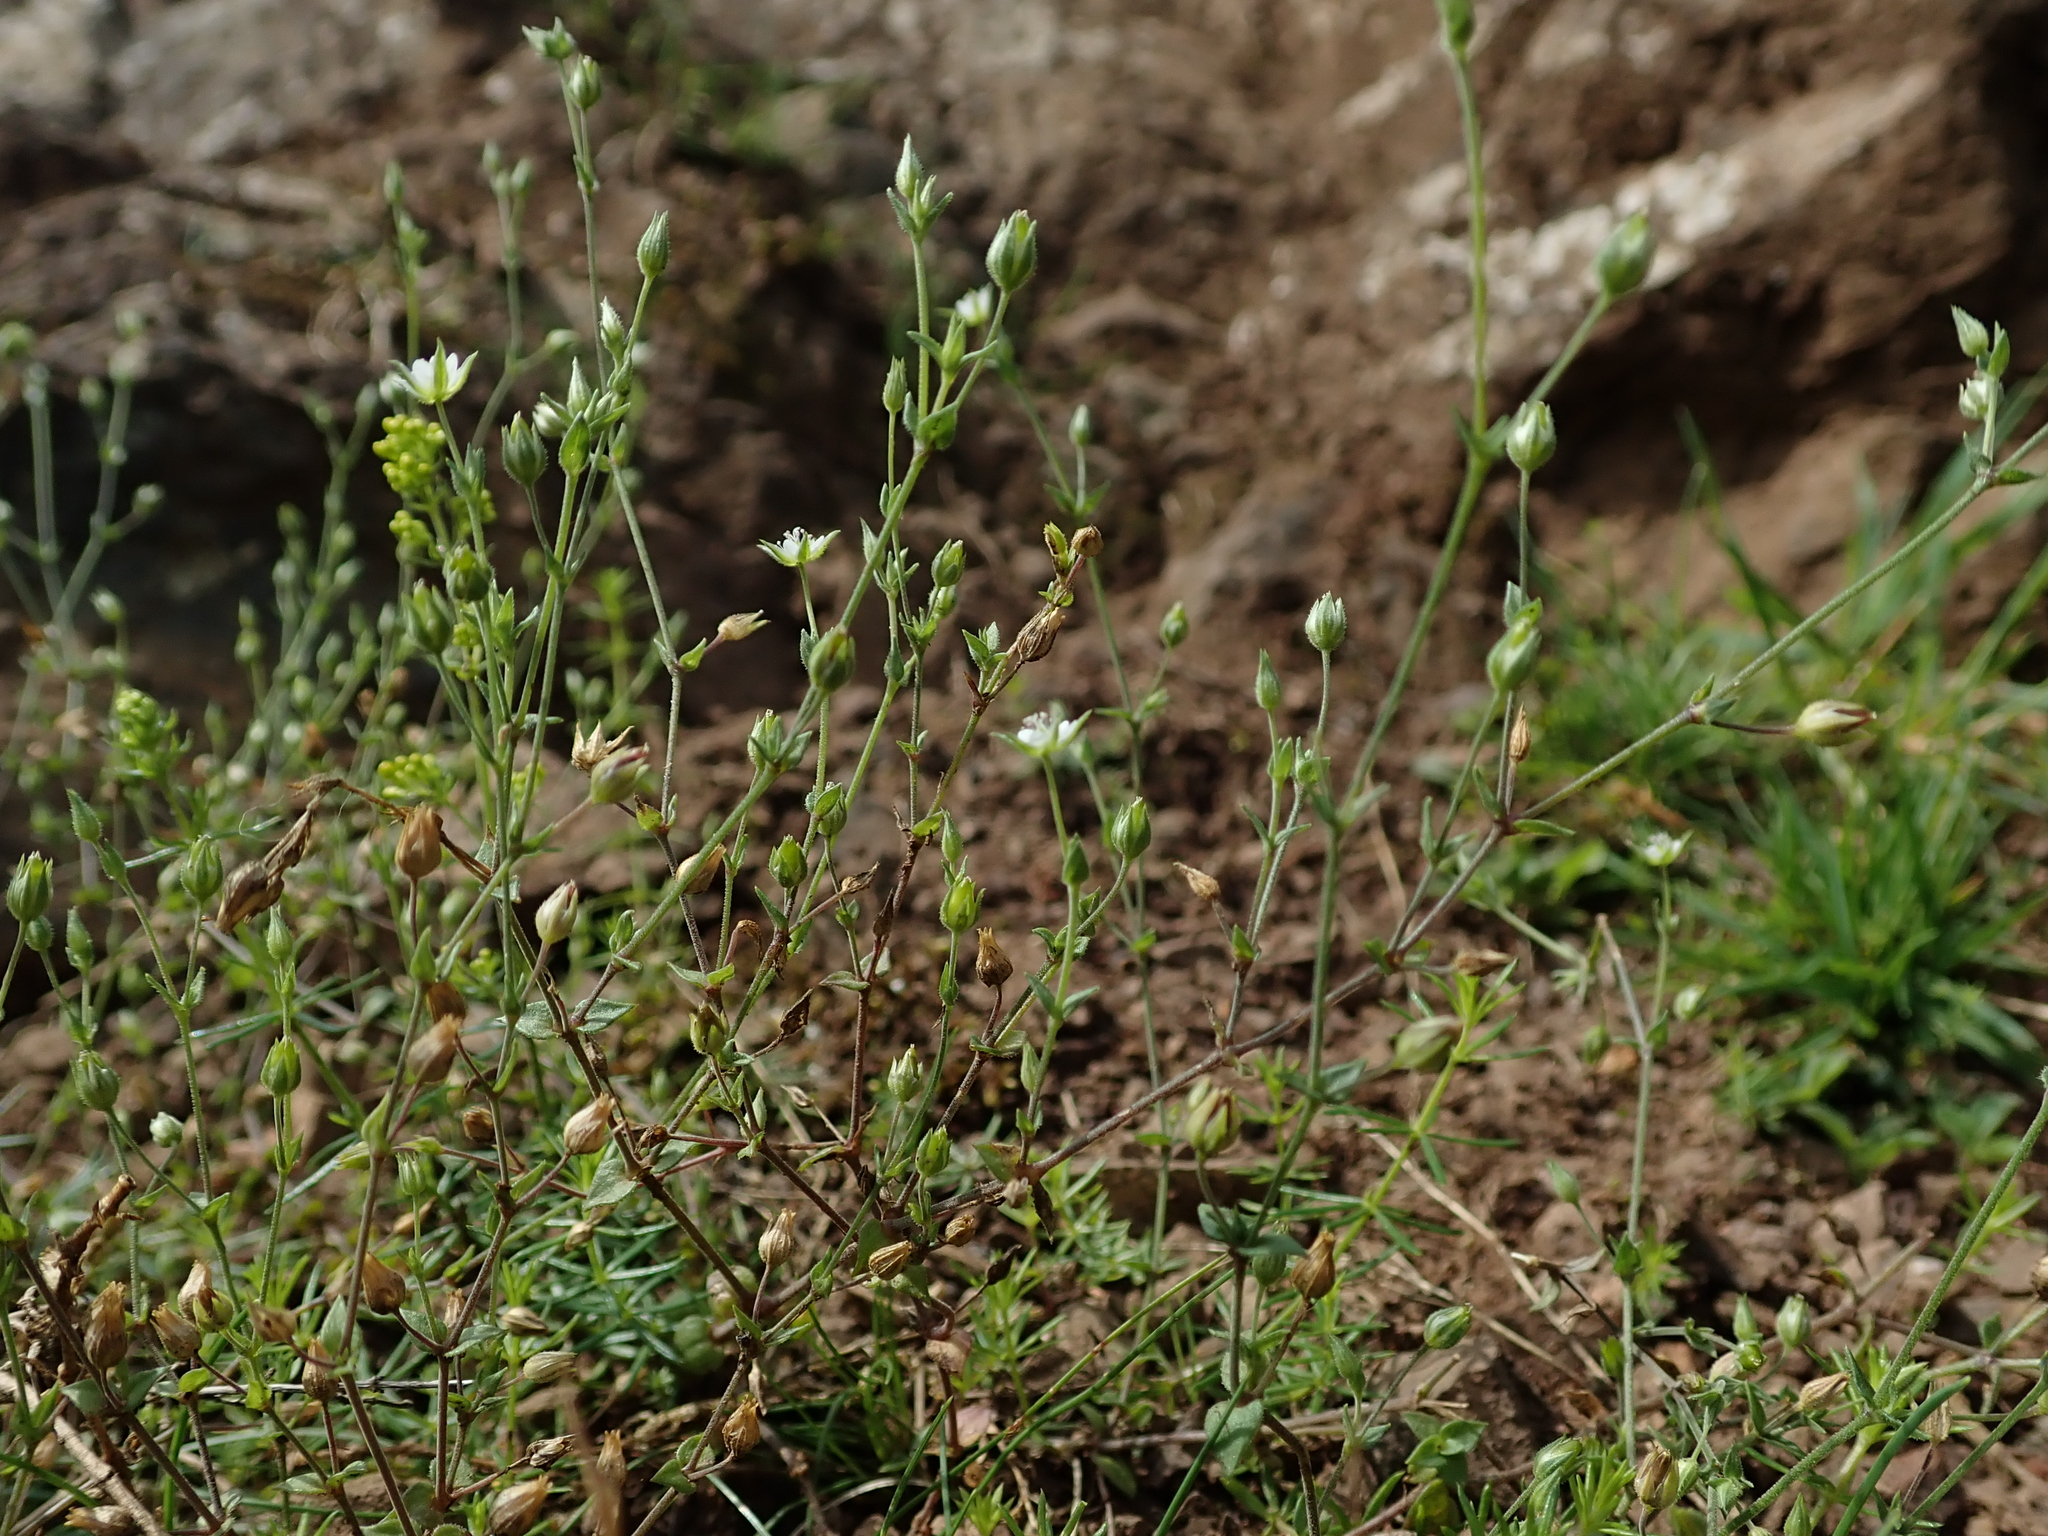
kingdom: Plantae
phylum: Tracheophyta
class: Magnoliopsida
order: Caryophyllales
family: Caryophyllaceae
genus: Arenaria
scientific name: Arenaria serpyllifolia
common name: Thyme-leaved sandwort
